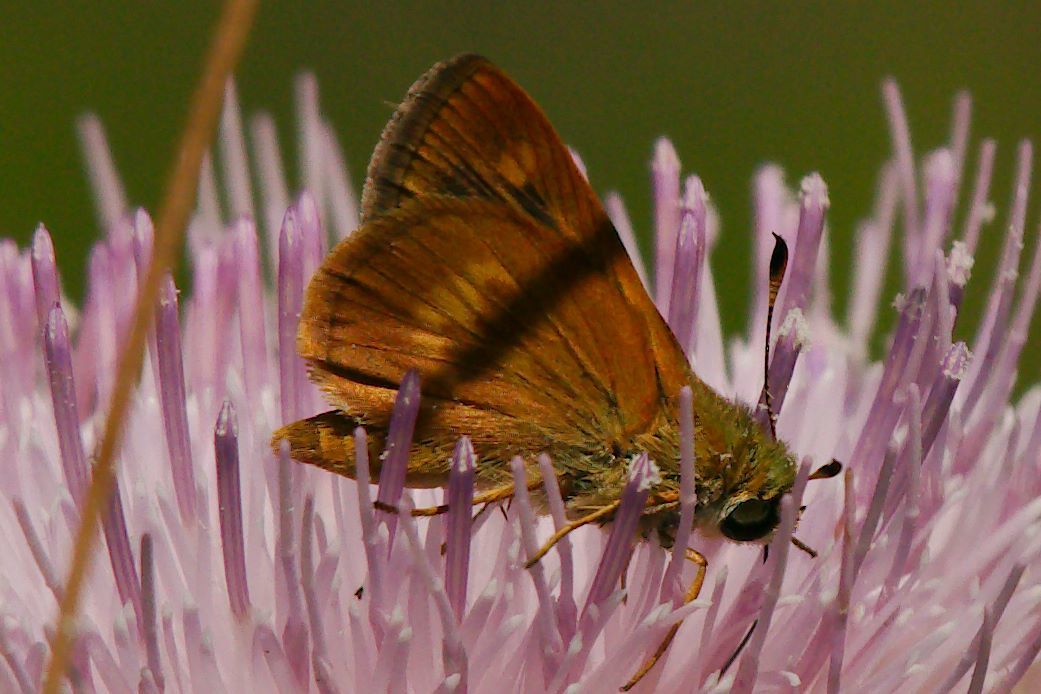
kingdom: Animalia
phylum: Arthropoda
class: Insecta
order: Lepidoptera
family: Hesperiidae
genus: Polites
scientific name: Polites otho
